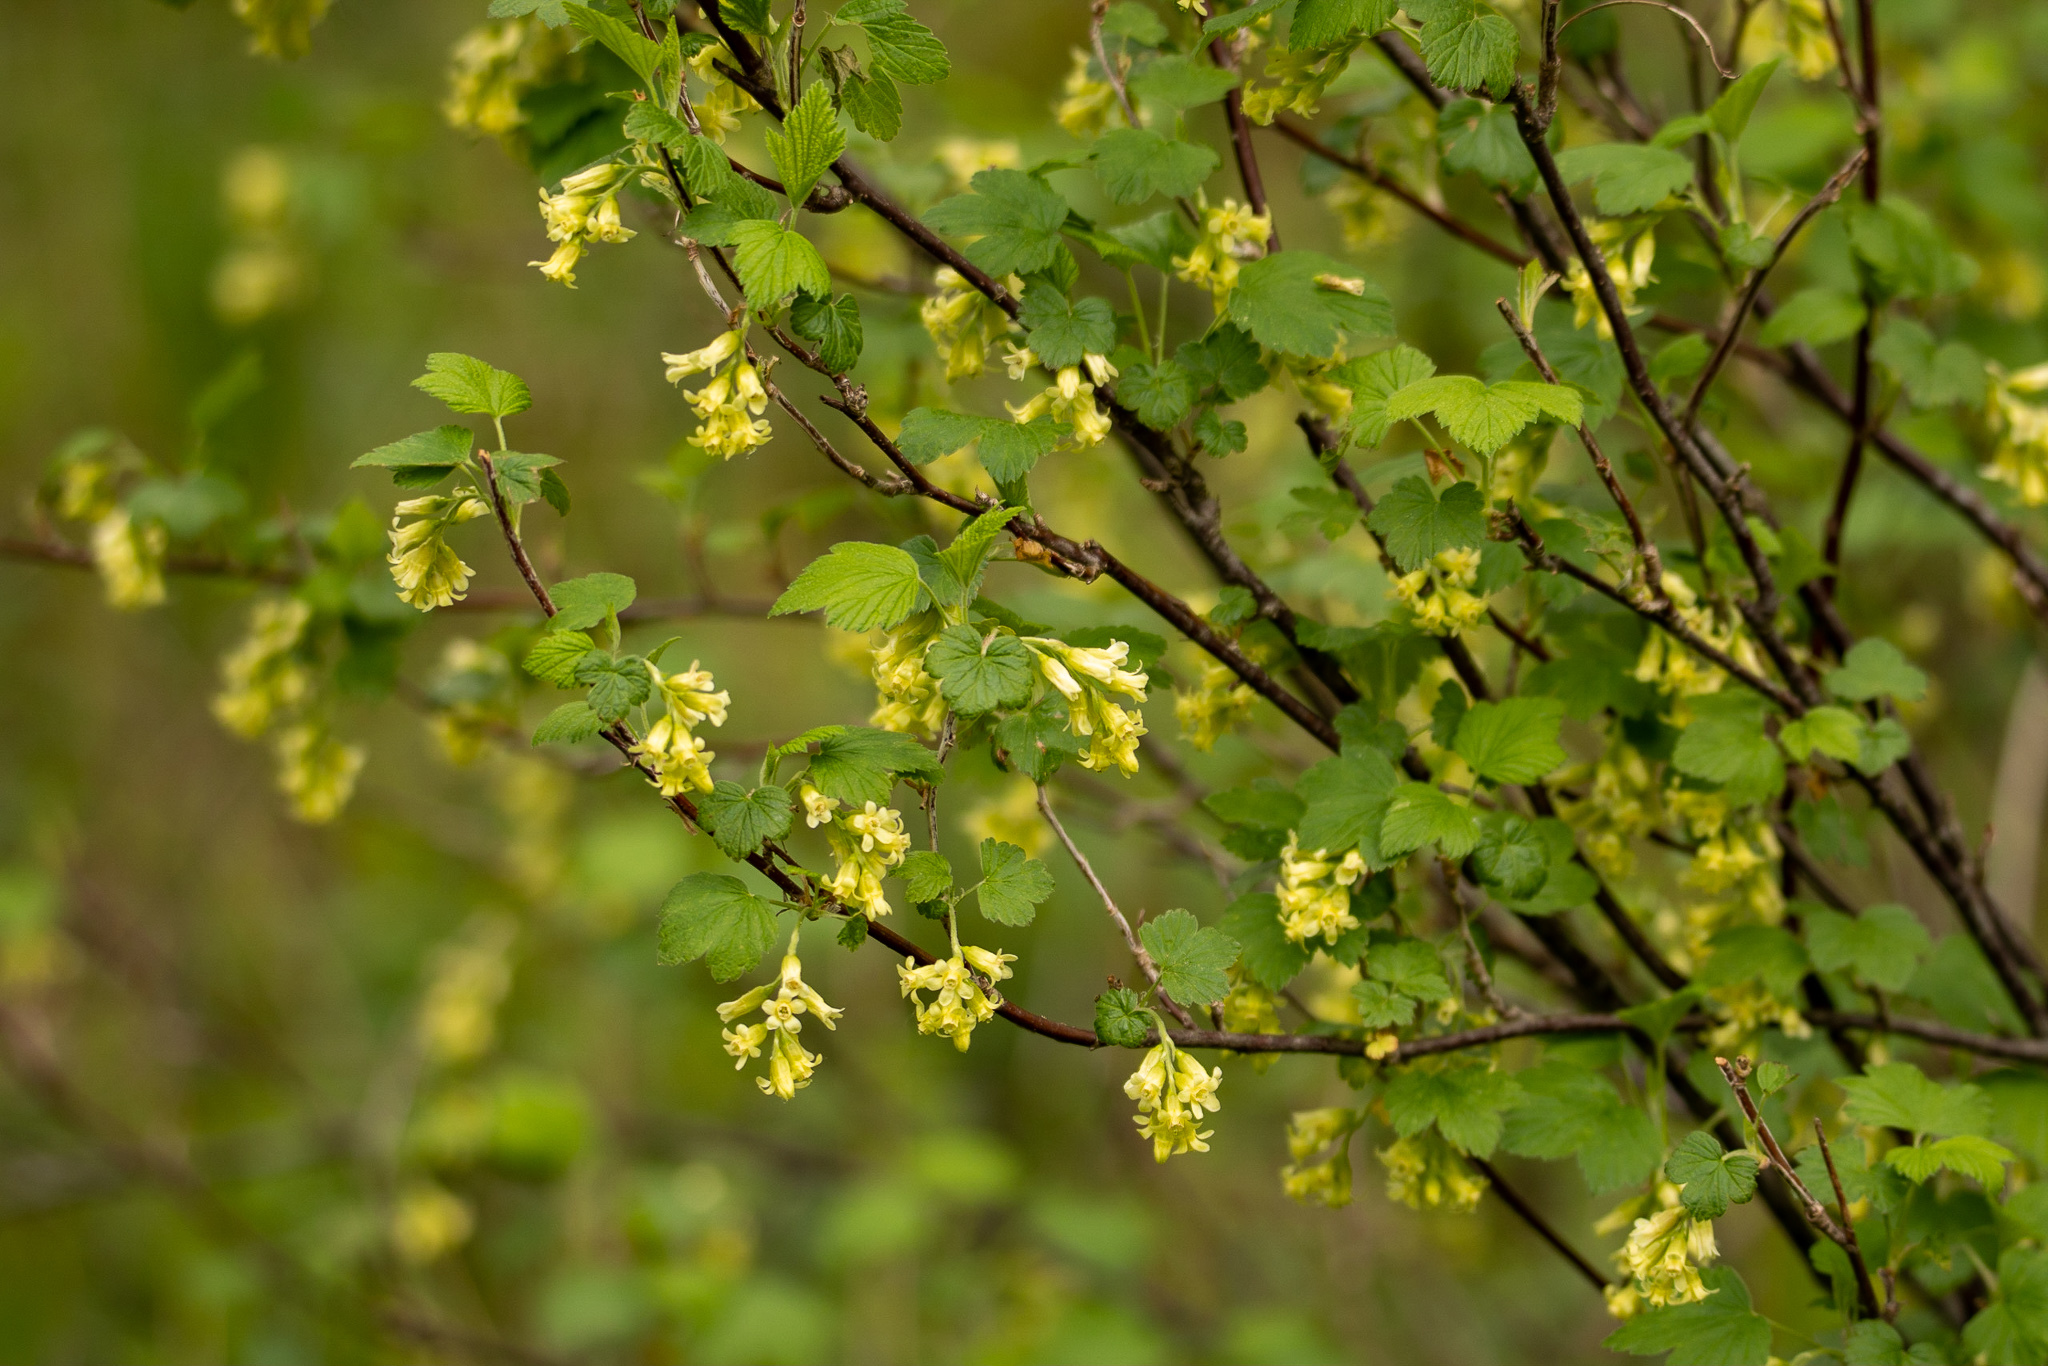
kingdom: Plantae
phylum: Tracheophyta
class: Magnoliopsida
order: Saxifragales
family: Grossulariaceae
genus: Ribes
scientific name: Ribes americanum
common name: American black currant
